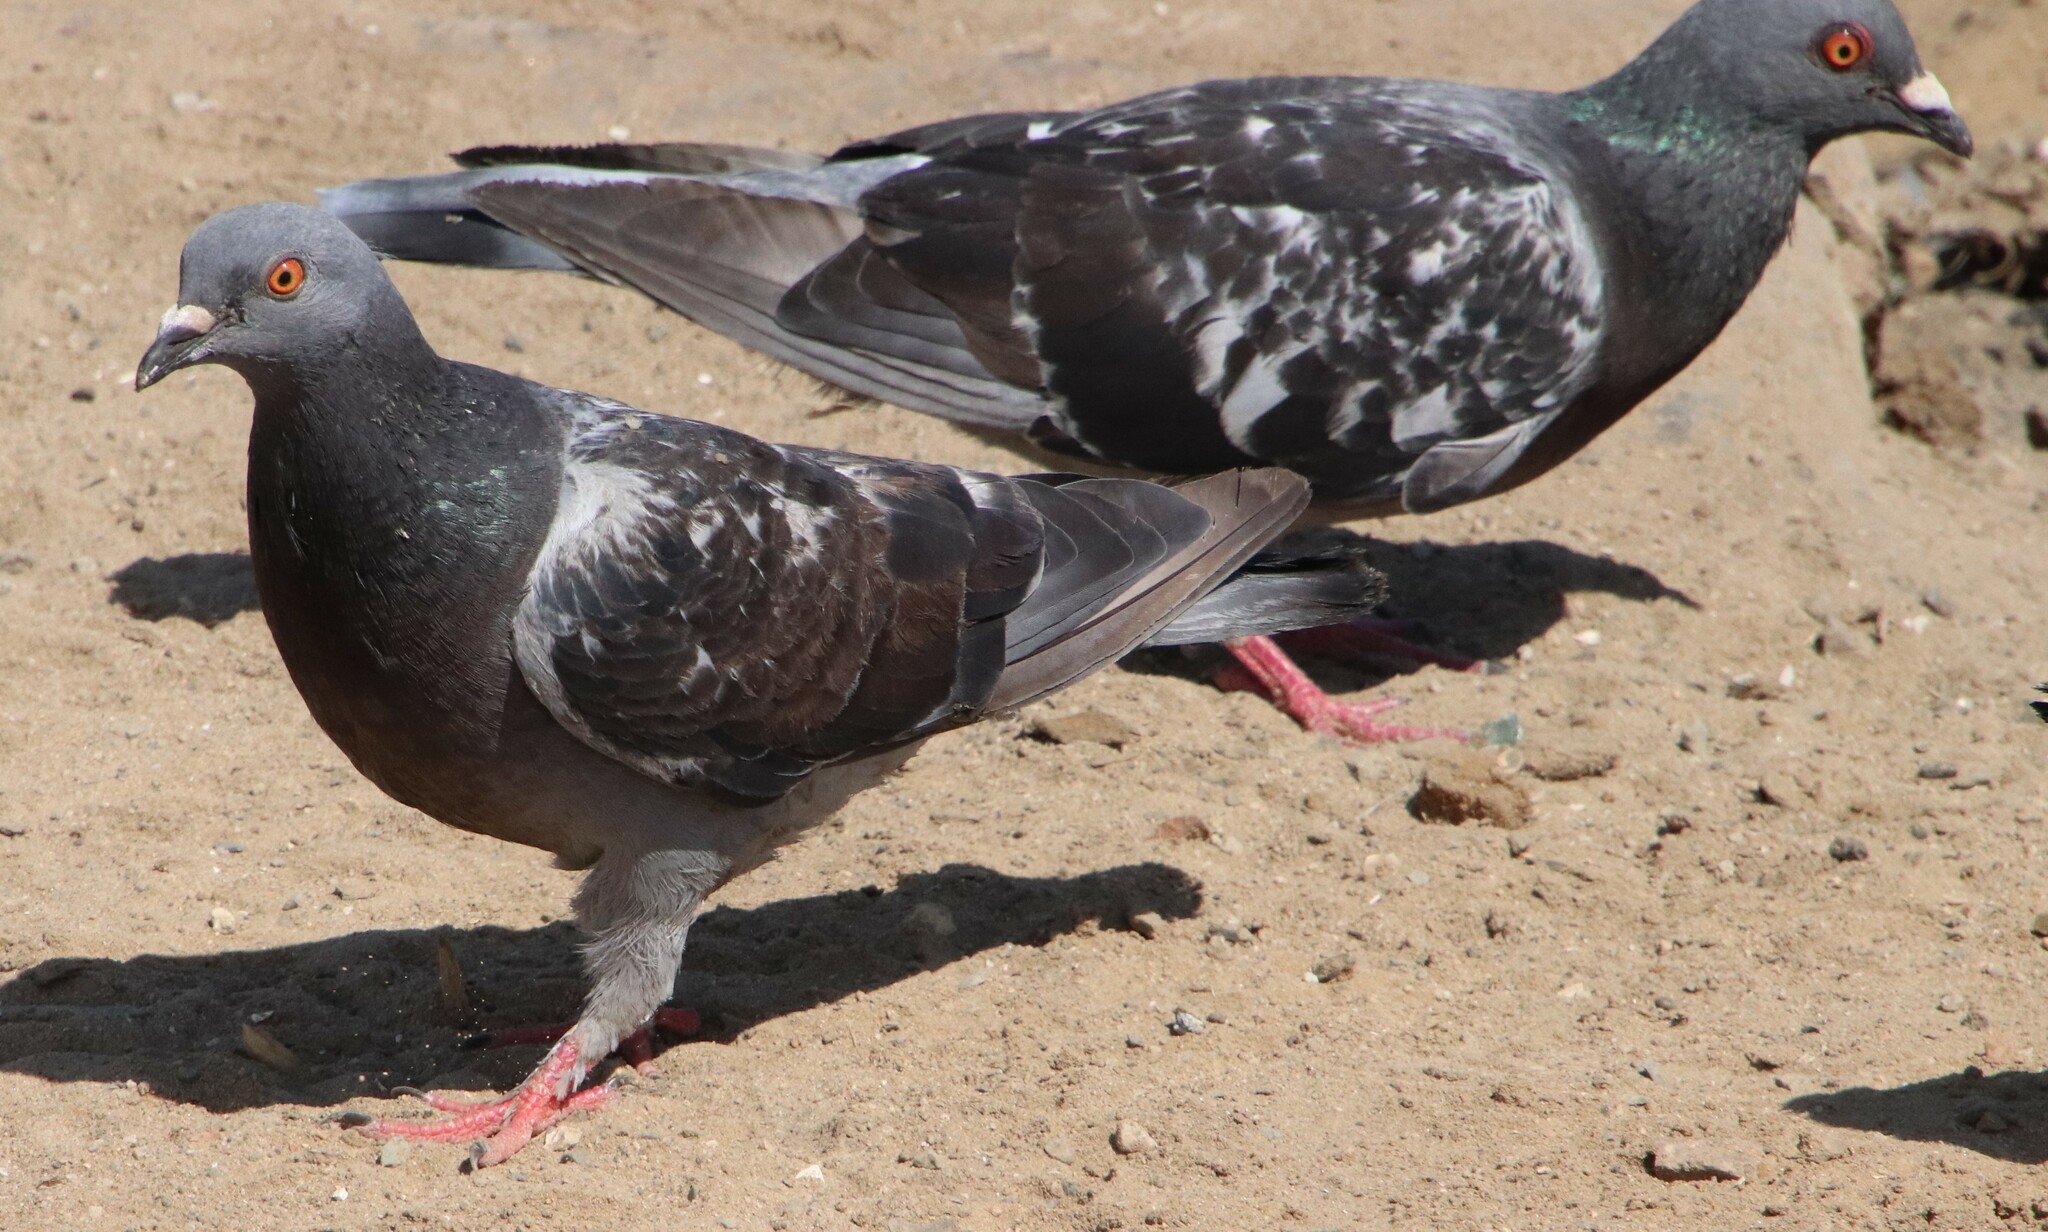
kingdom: Animalia
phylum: Chordata
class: Aves
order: Columbiformes
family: Columbidae
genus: Columba
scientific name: Columba livia
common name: Rock pigeon
